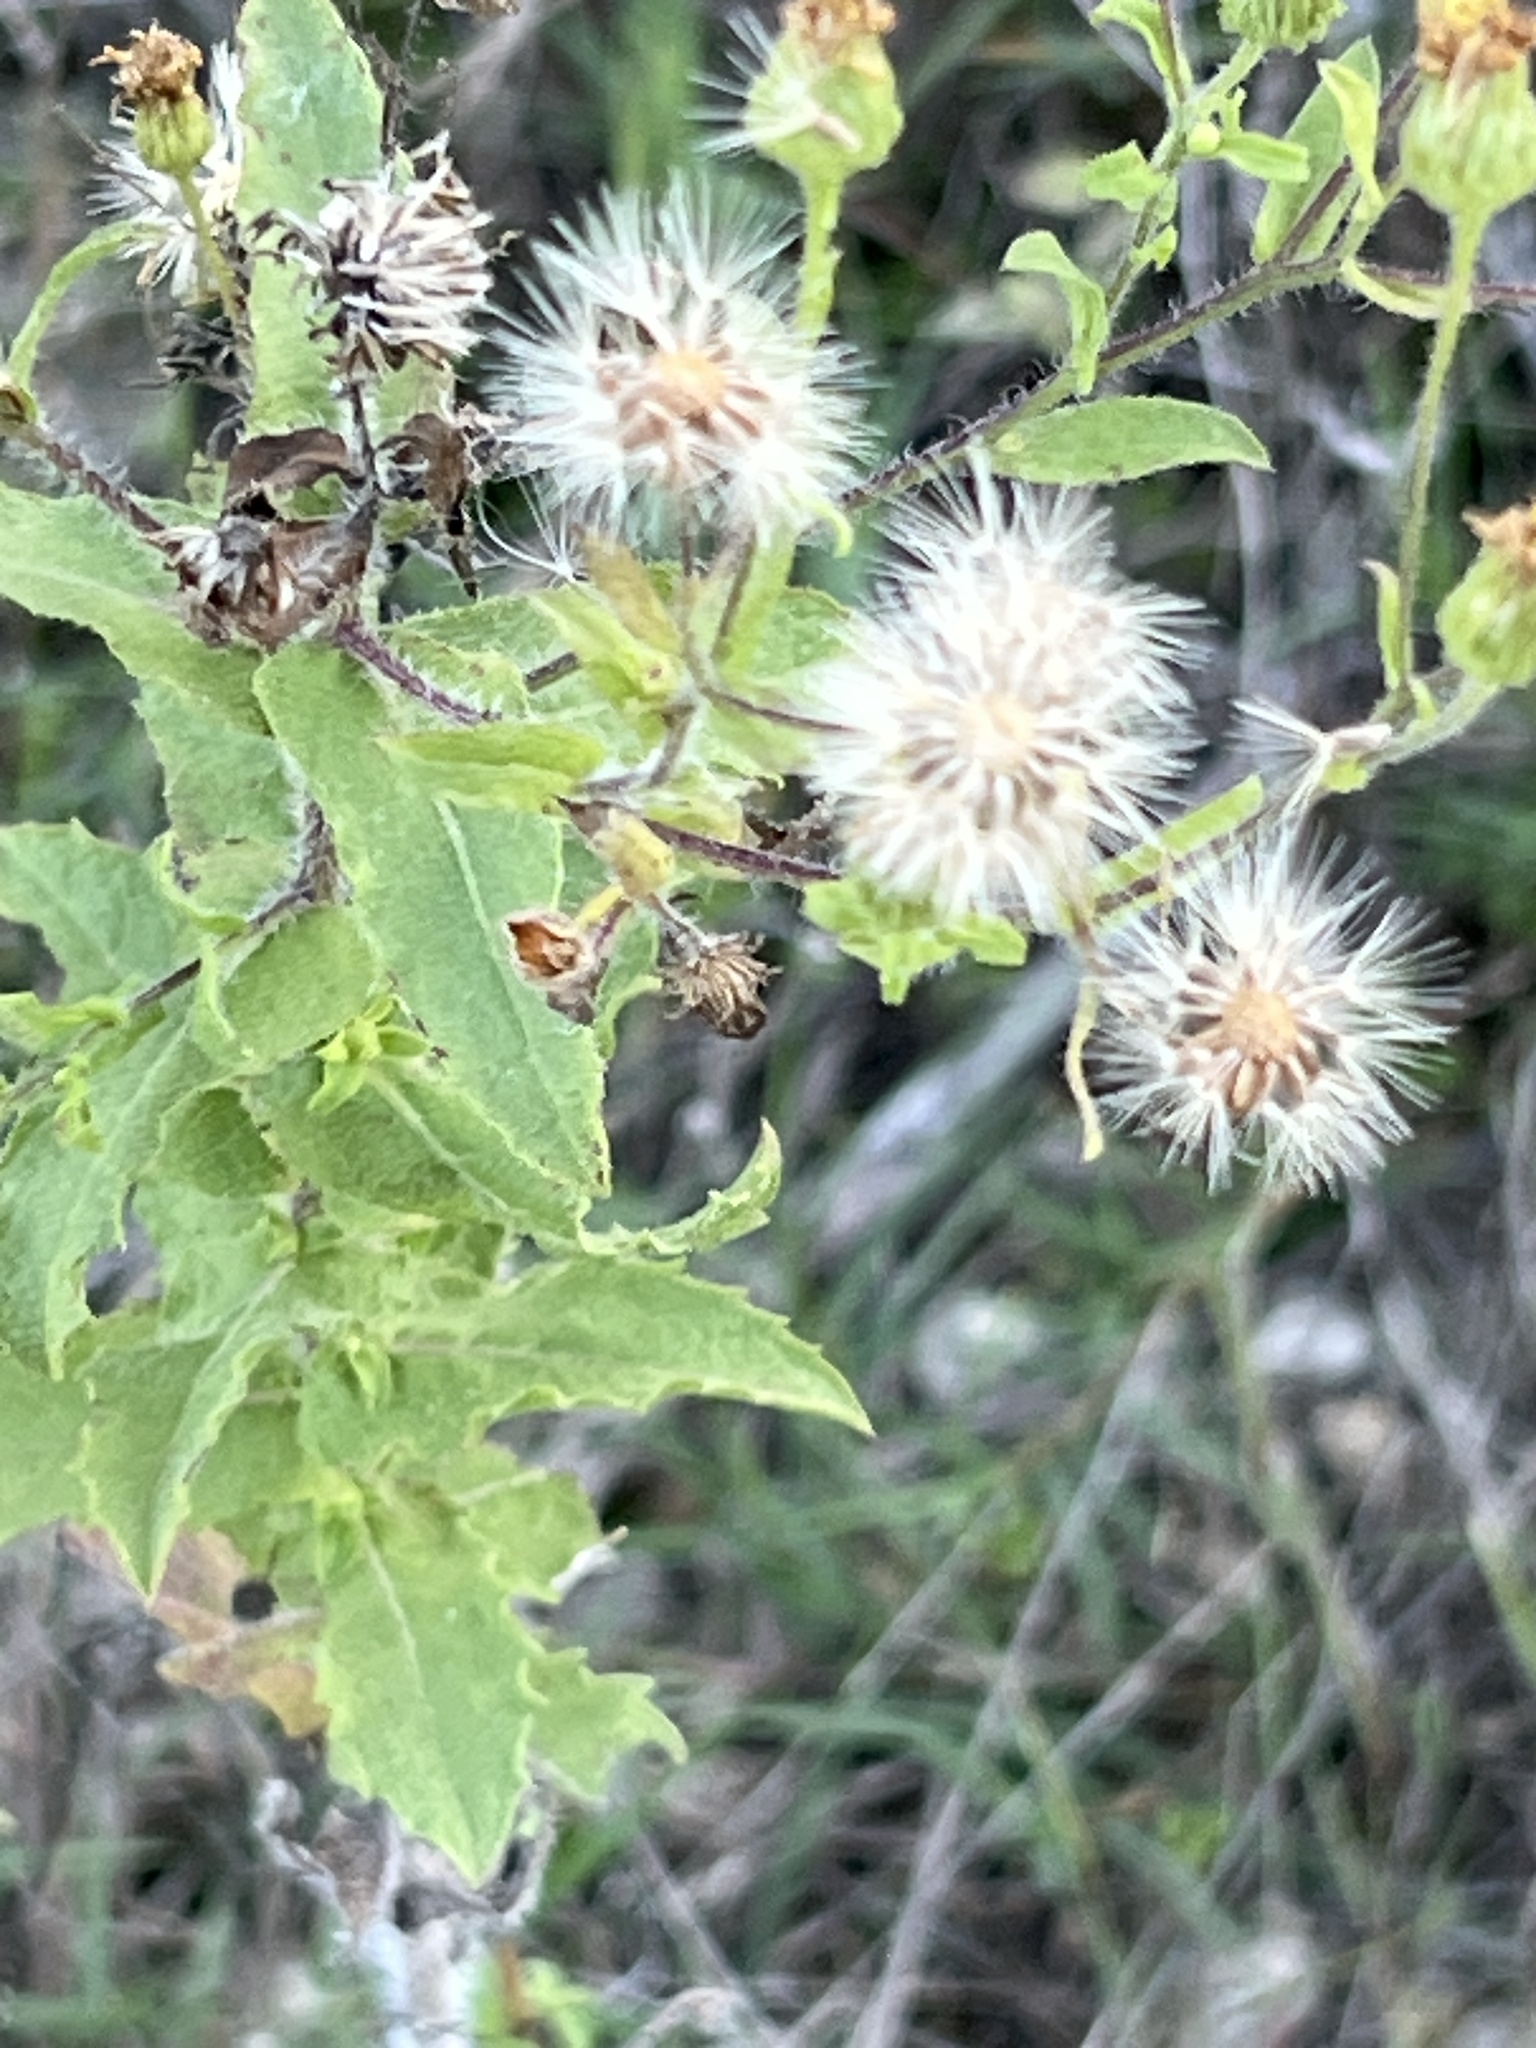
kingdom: Plantae
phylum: Tracheophyta
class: Magnoliopsida
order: Asterales
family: Asteraceae
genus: Heterotheca
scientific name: Heterotheca subaxillaris
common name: Camphorweed
